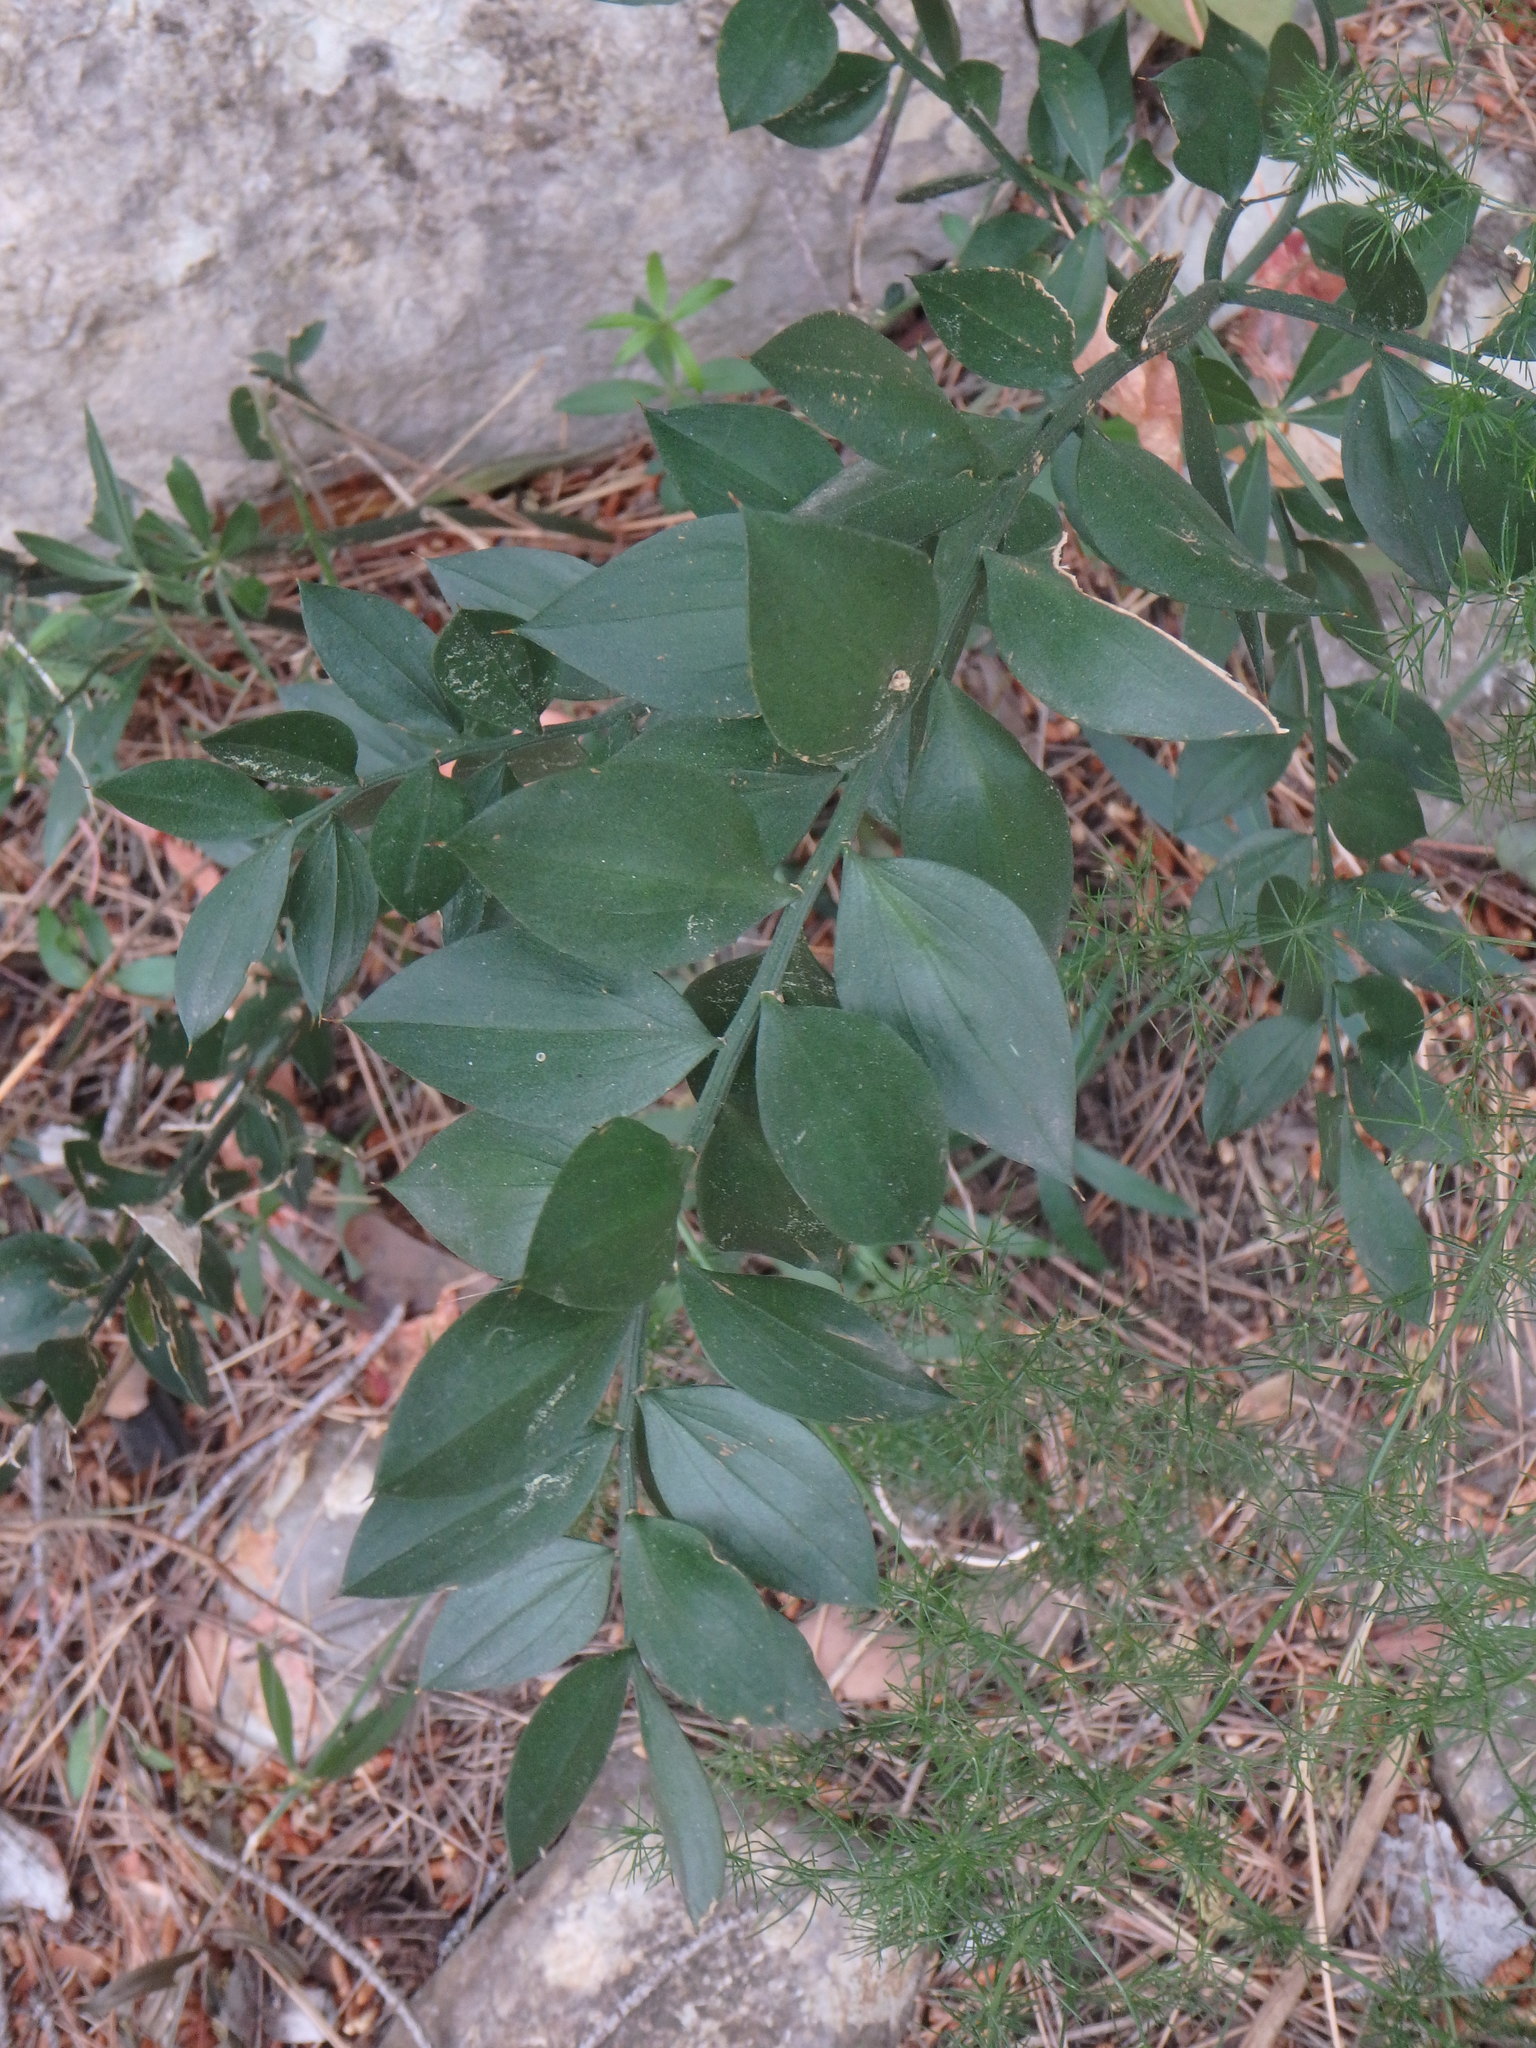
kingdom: Plantae
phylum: Tracheophyta
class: Liliopsida
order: Asparagales
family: Asparagaceae
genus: Ruscus
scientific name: Ruscus aculeatus
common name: Butcher's-broom
